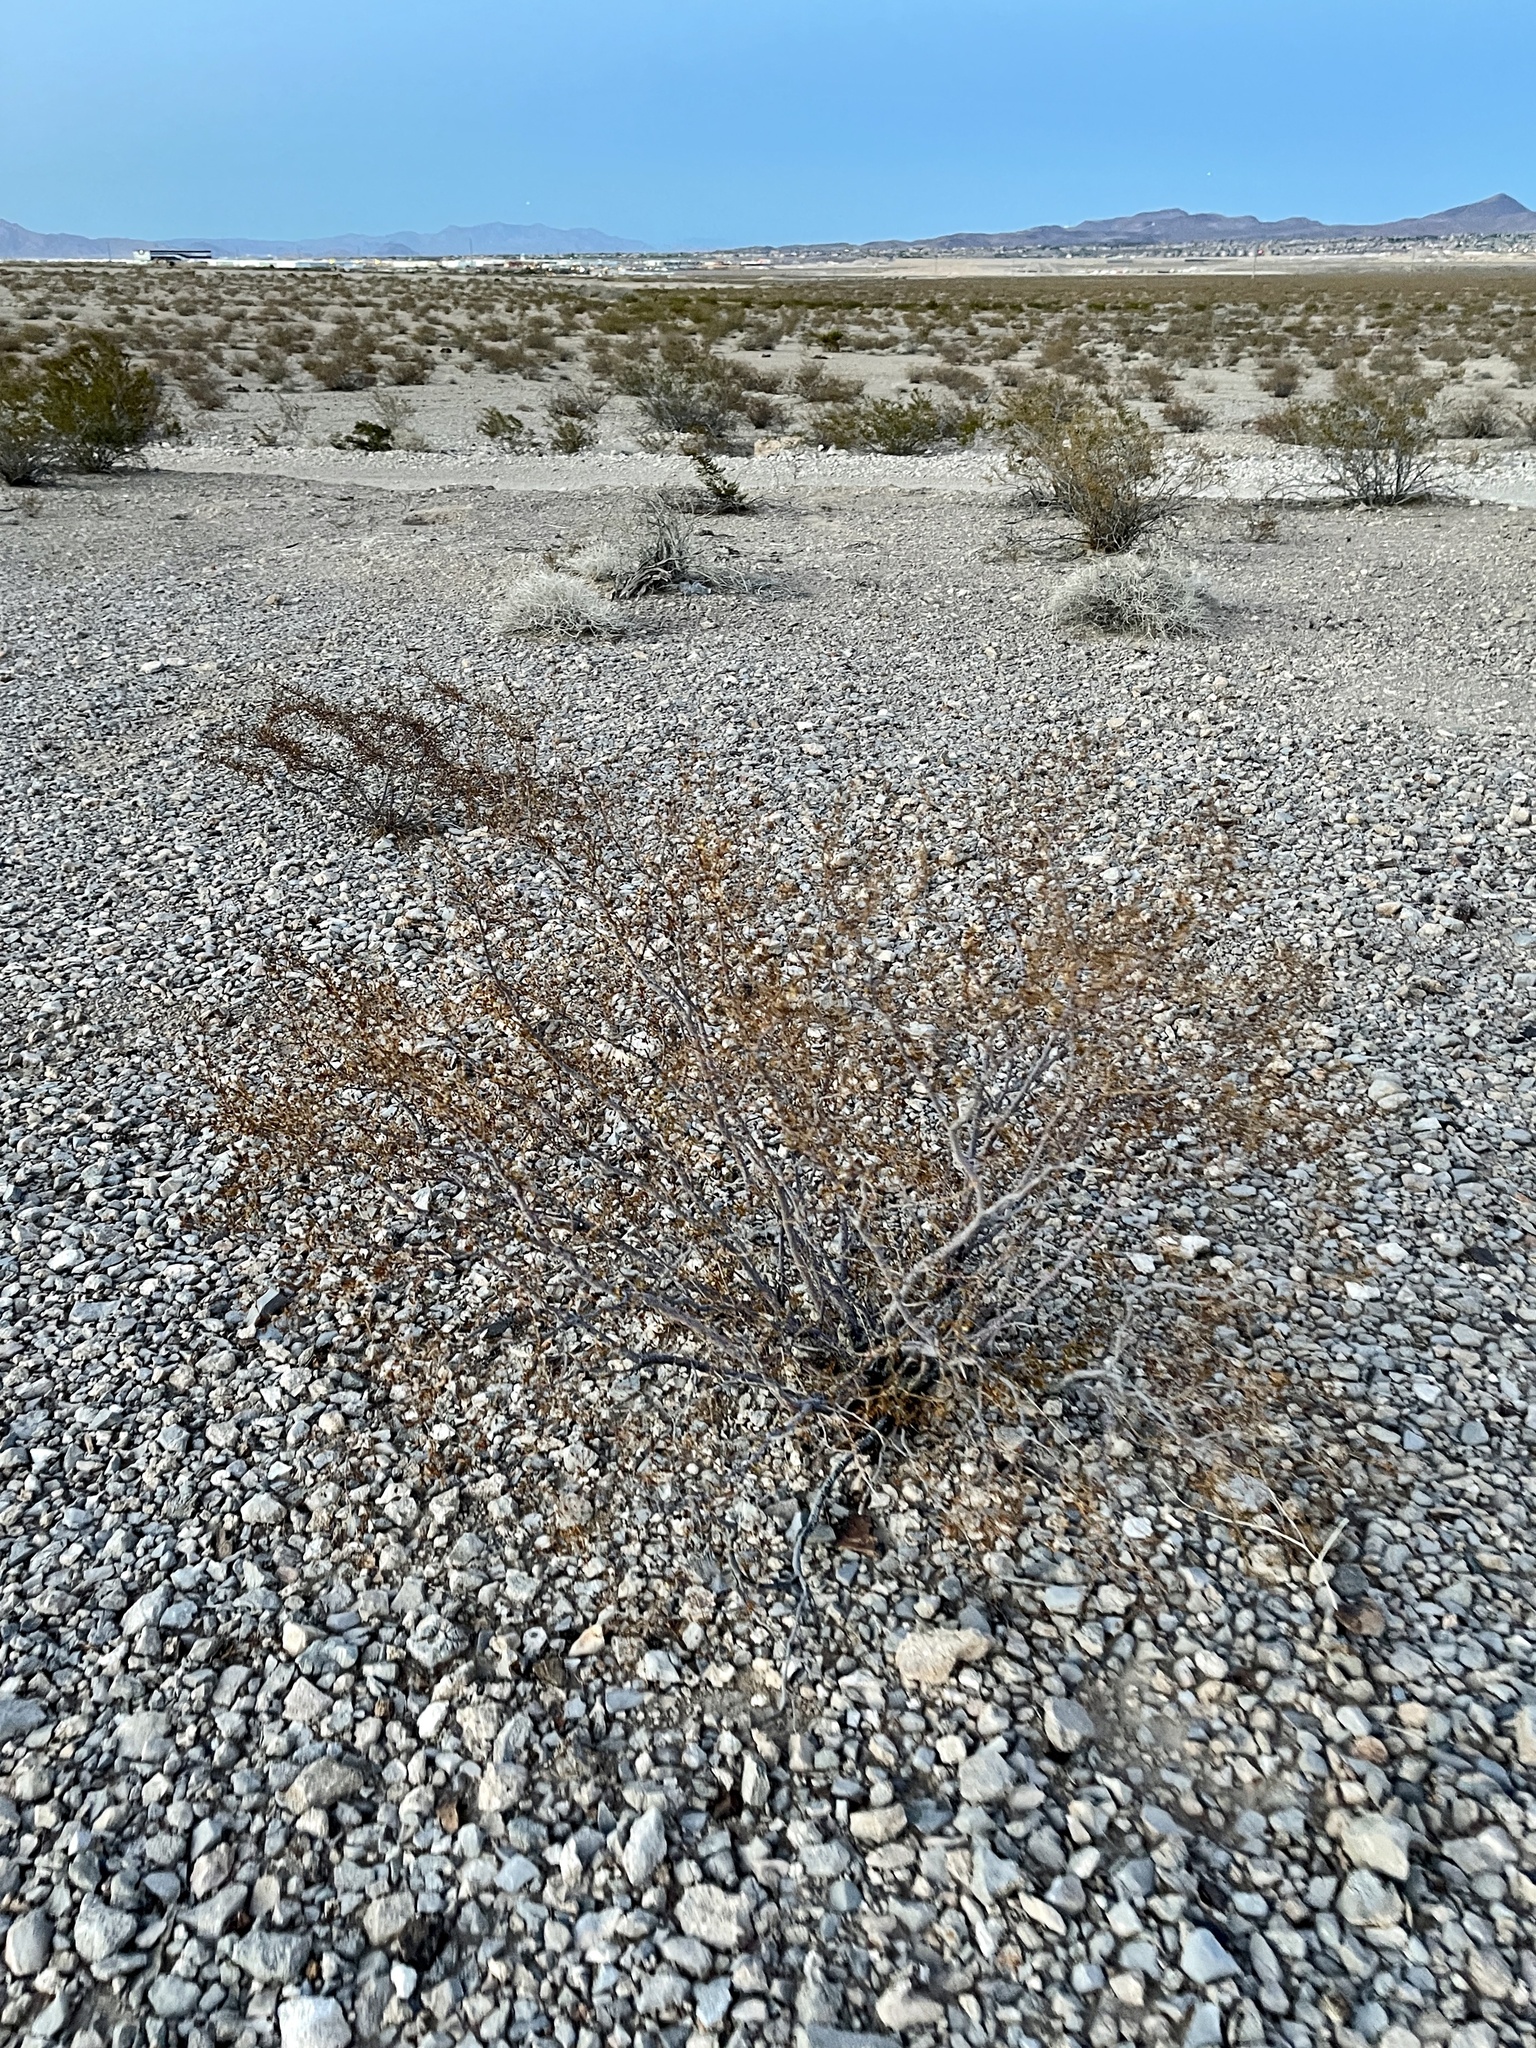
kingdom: Plantae
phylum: Tracheophyta
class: Magnoliopsida
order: Zygophyllales
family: Zygophyllaceae
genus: Larrea
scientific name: Larrea tridentata
